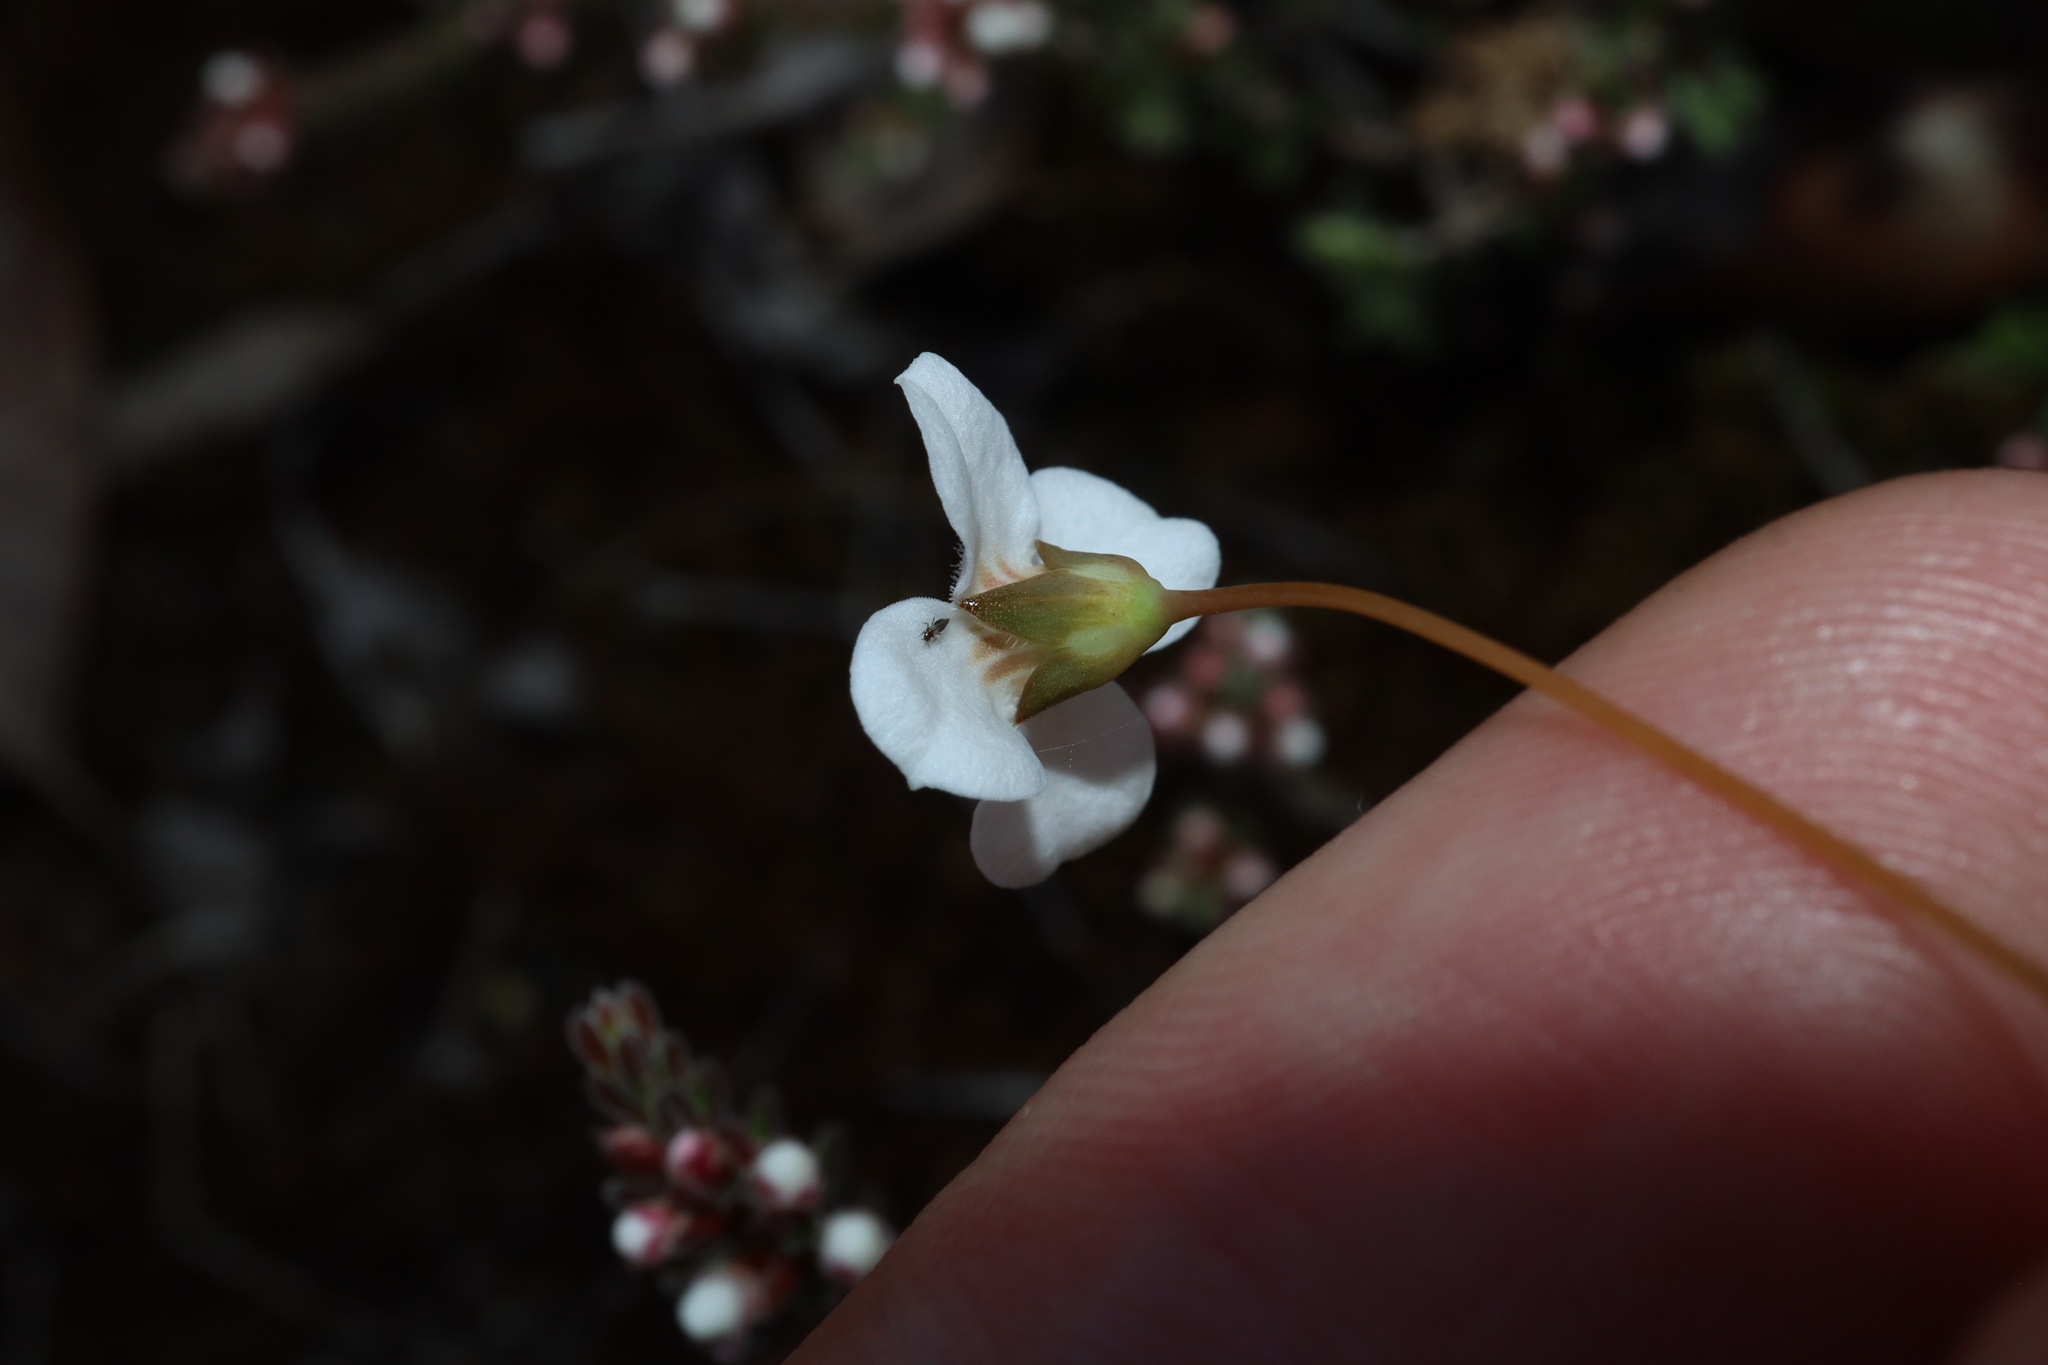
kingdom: Plantae
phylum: Tracheophyta
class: Magnoliopsida
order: Gentianales
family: Loganiaceae
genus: Mitrasacme
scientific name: Mitrasacme polymorpha
